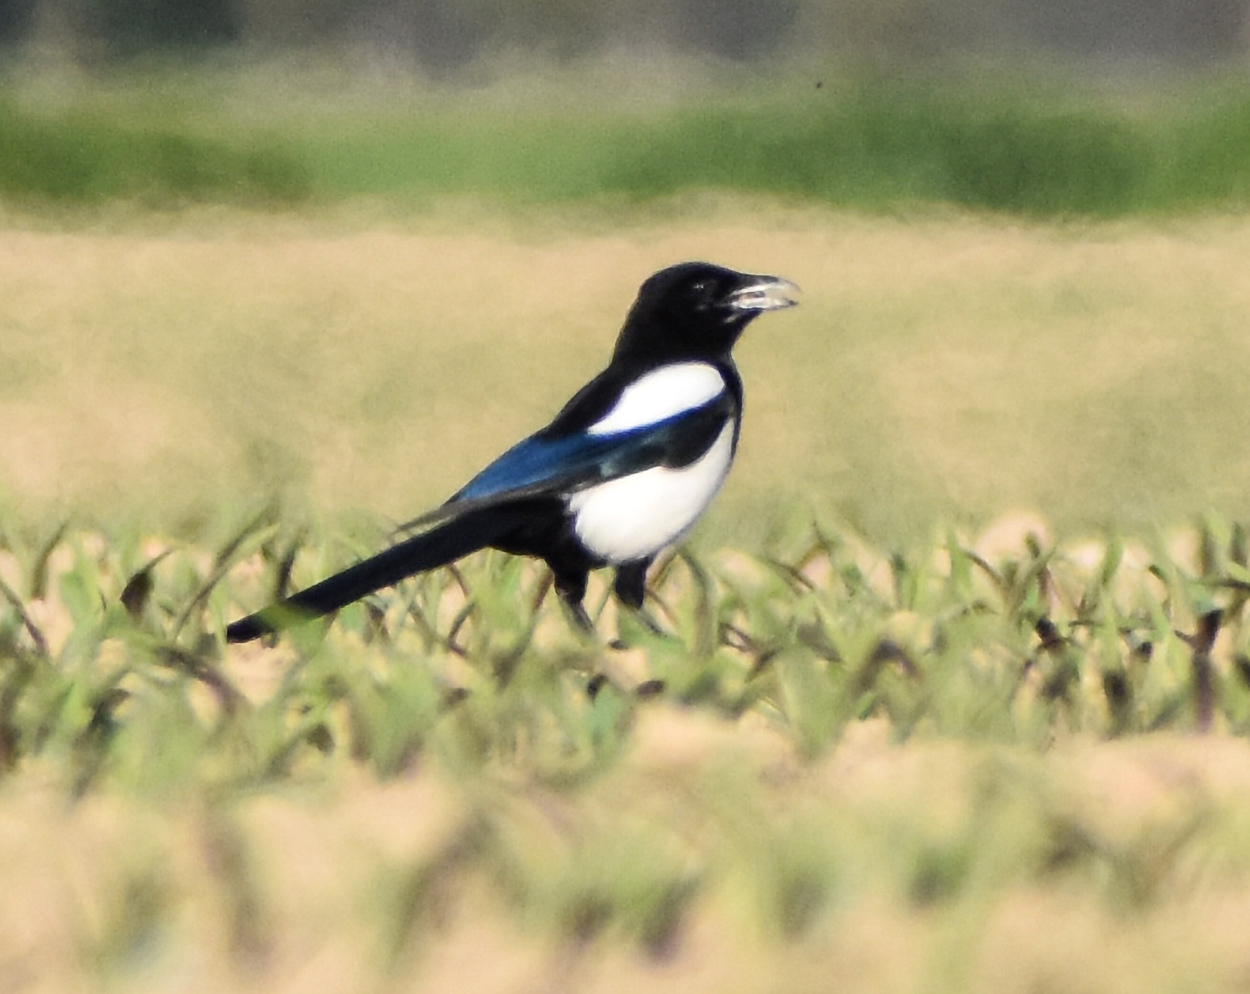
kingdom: Animalia
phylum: Chordata
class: Aves
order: Passeriformes
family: Corvidae
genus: Pica
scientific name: Pica pica
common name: Eurasian magpie
